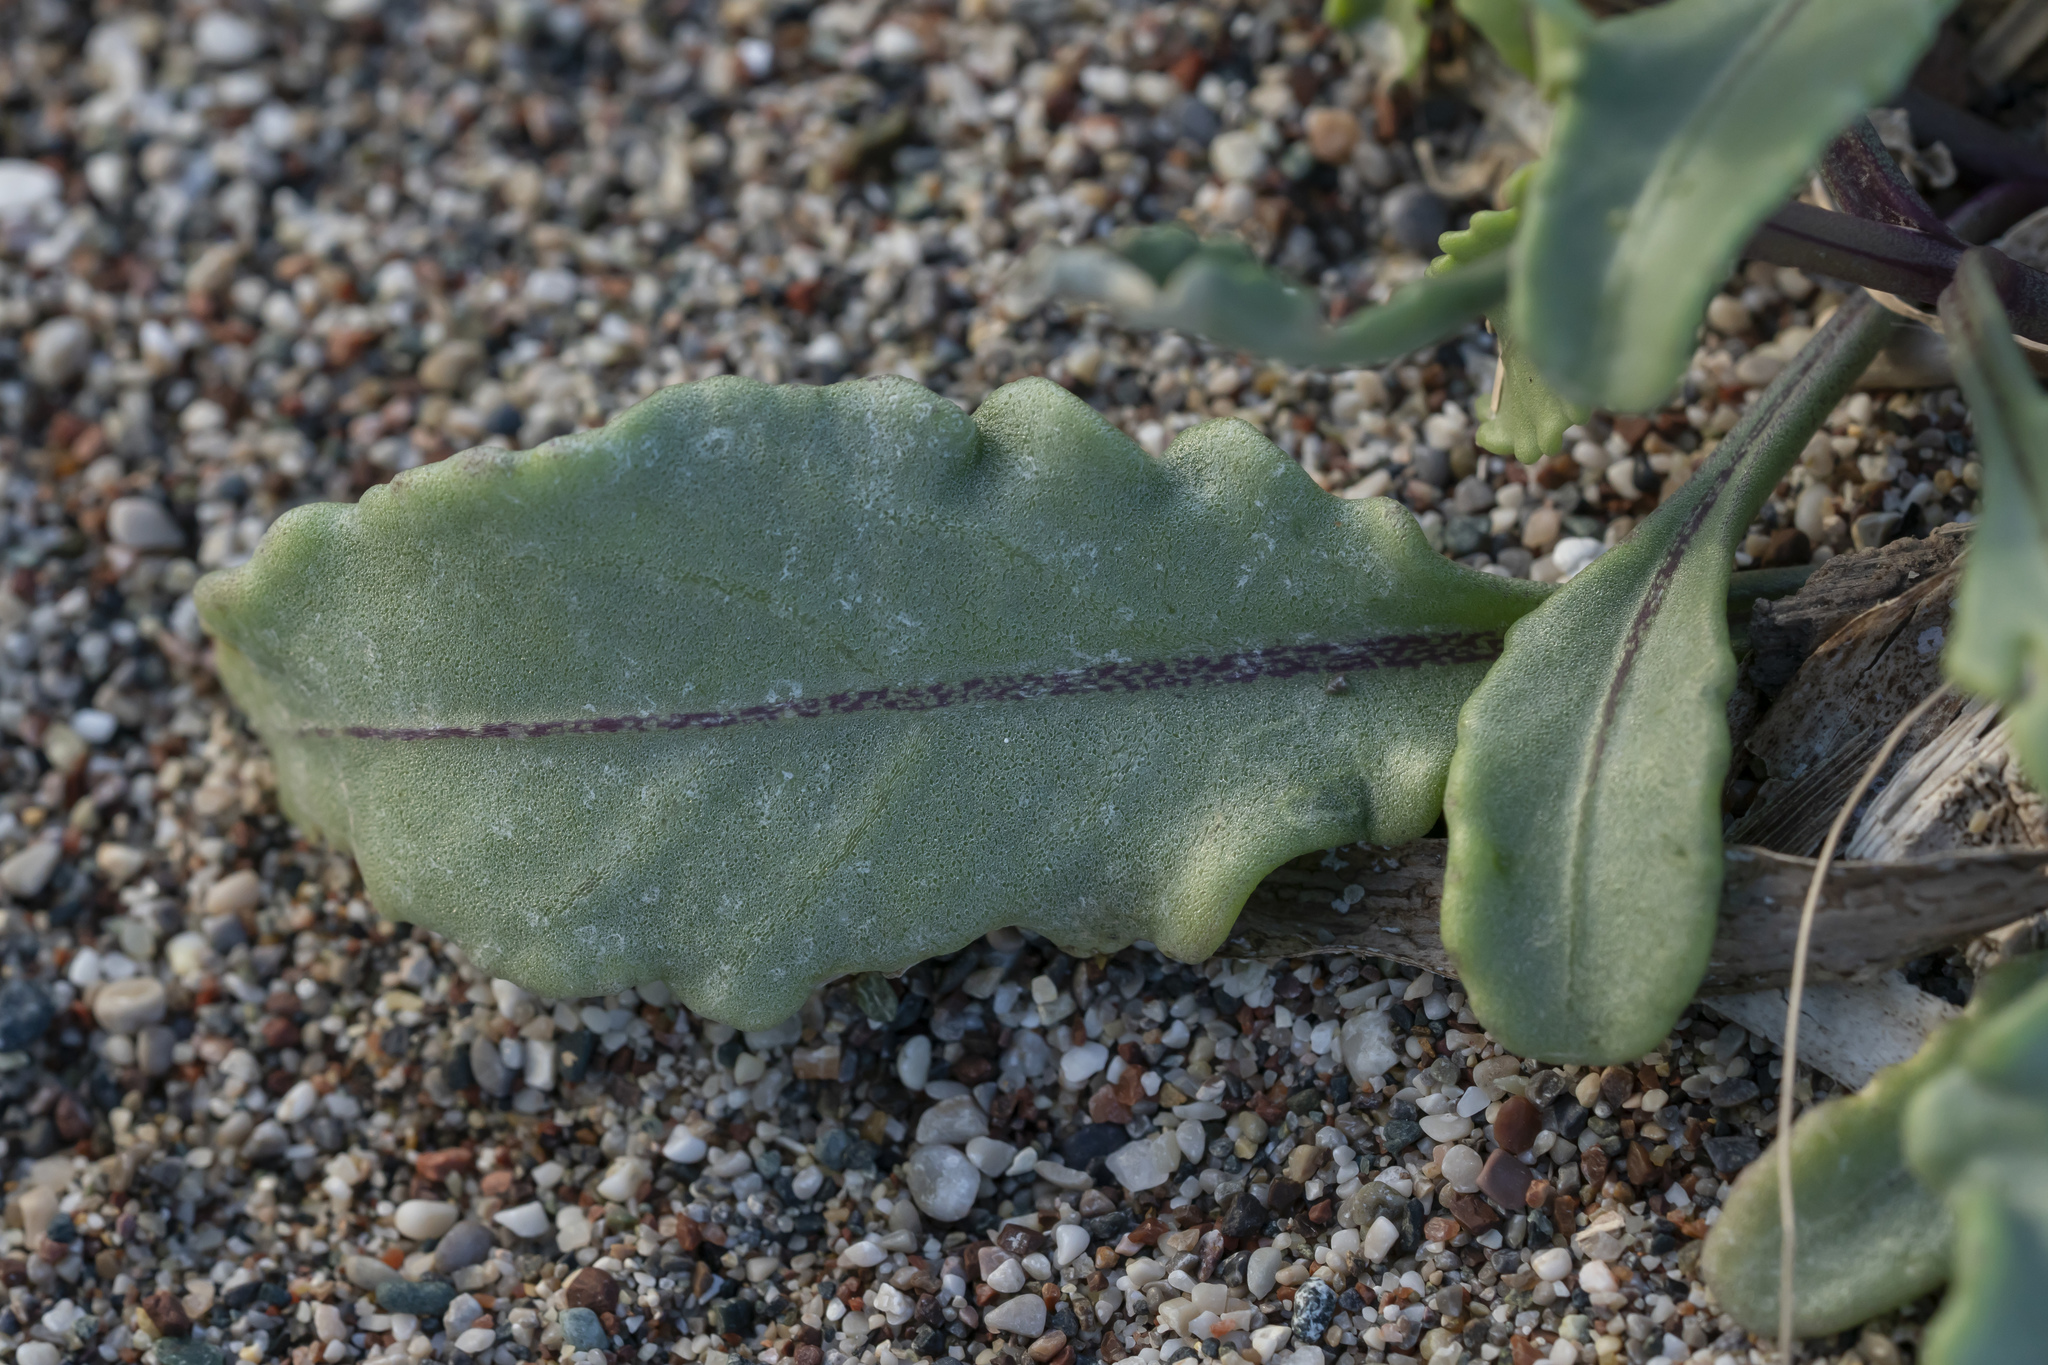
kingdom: Plantae
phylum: Tracheophyta
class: Magnoliopsida
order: Brassicales
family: Brassicaceae
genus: Cakile
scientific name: Cakile maritima
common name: Sea rocket
